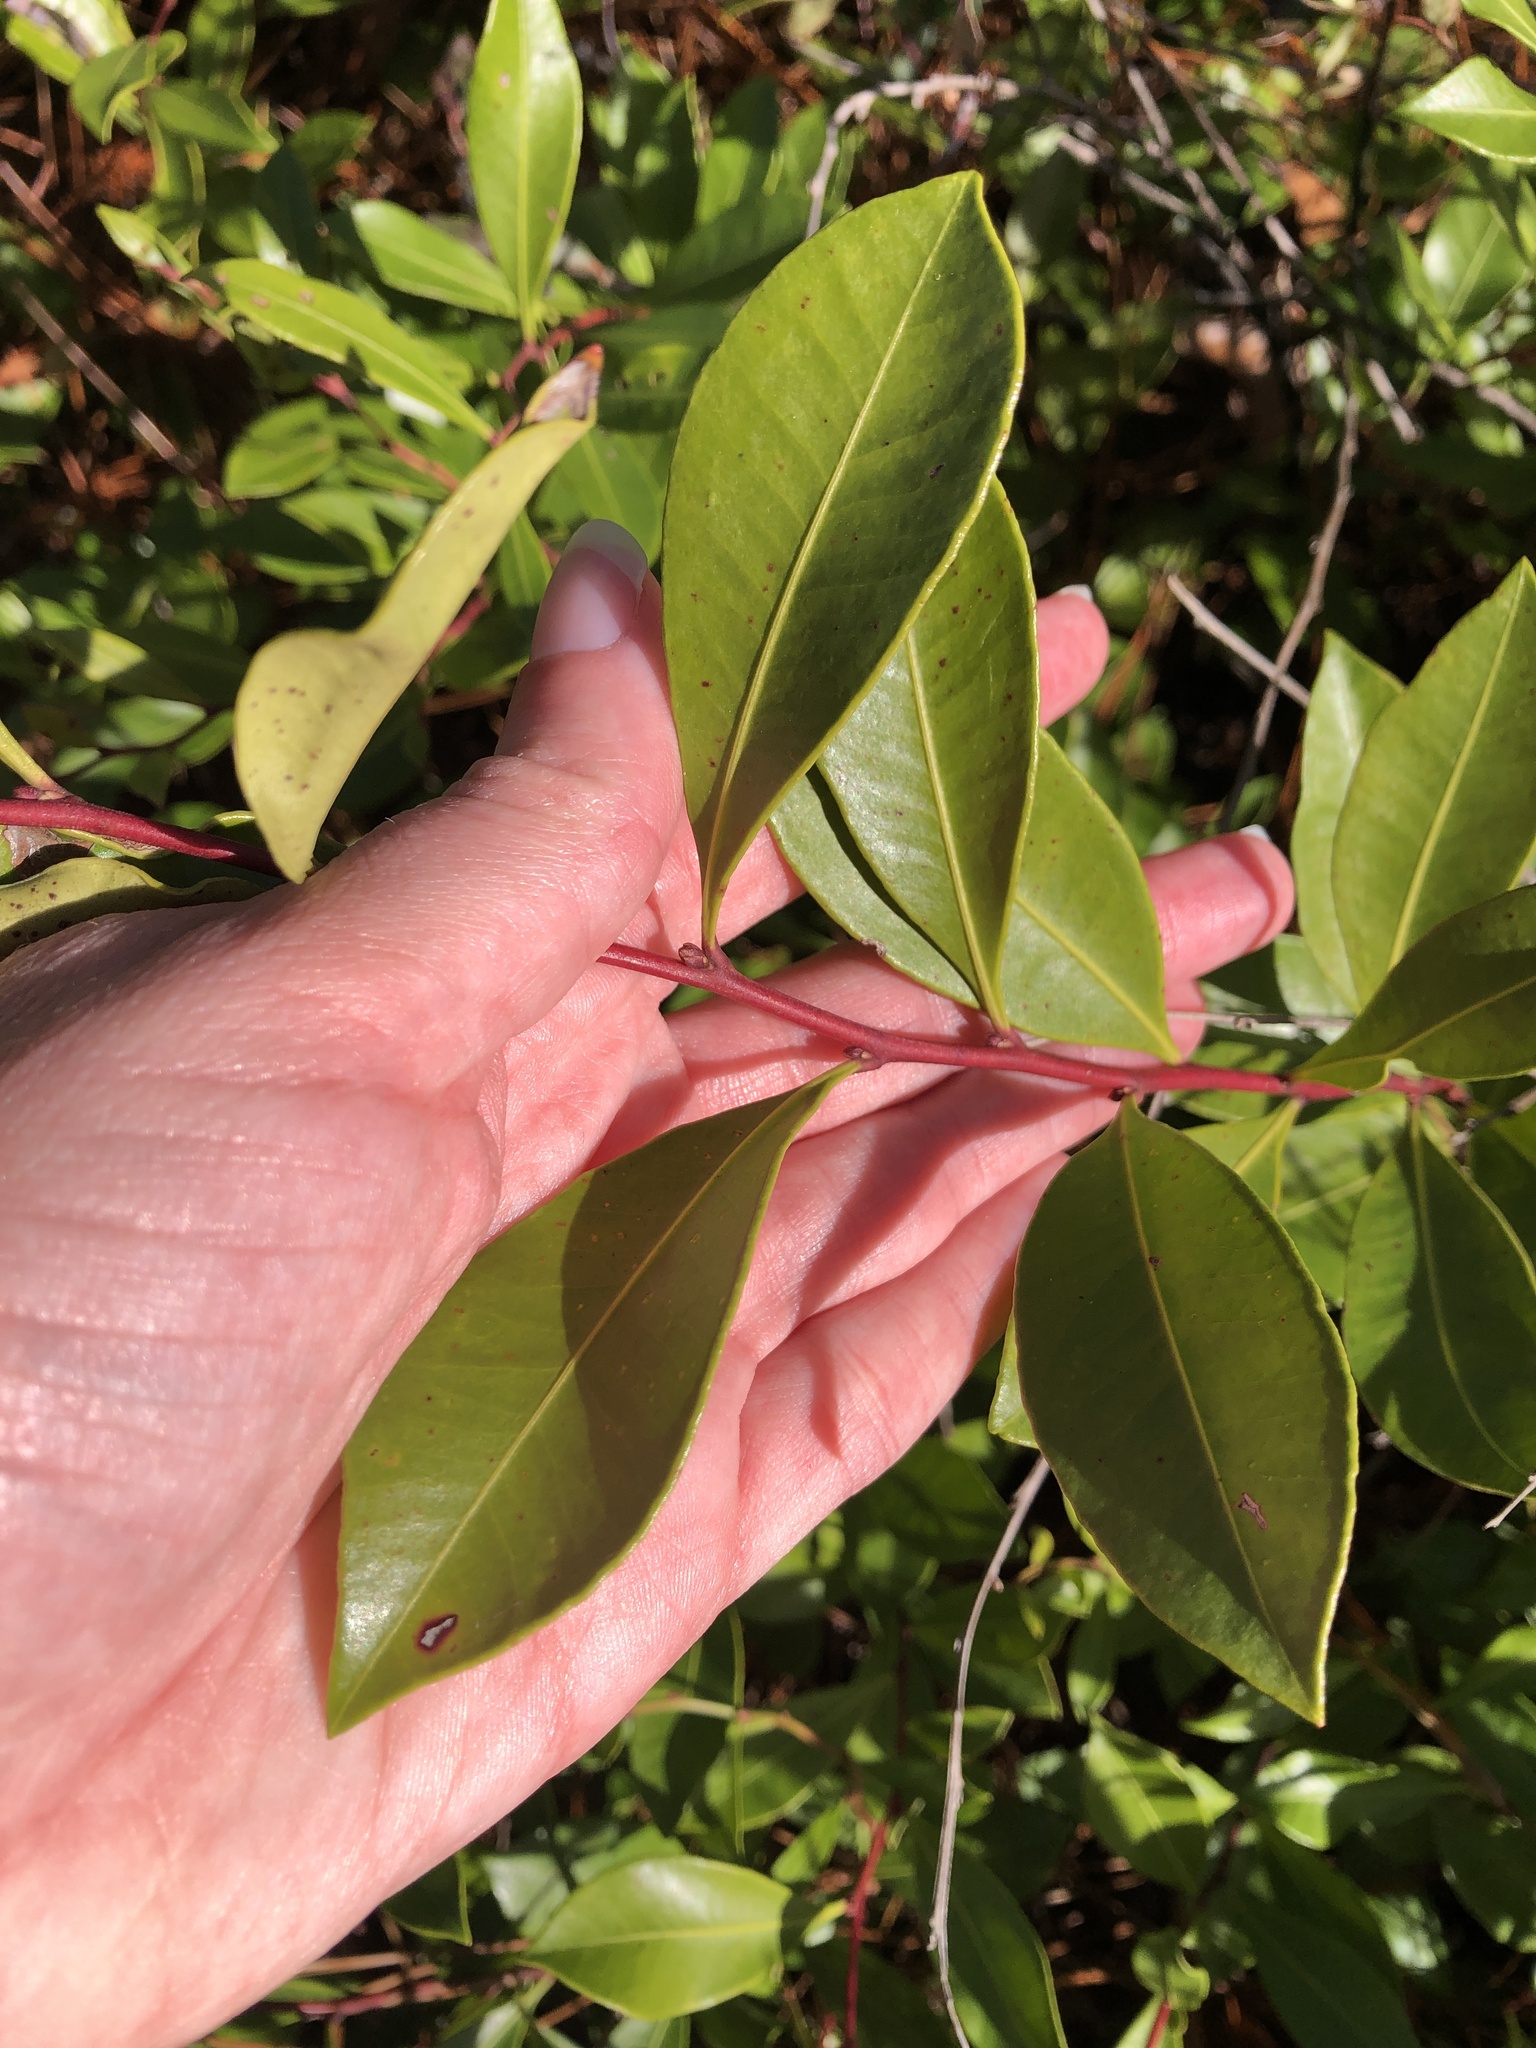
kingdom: Plantae
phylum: Tracheophyta
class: Magnoliopsida
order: Ericales
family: Ericaceae
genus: Lyonia
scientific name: Lyonia lucida
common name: Fetterbush
